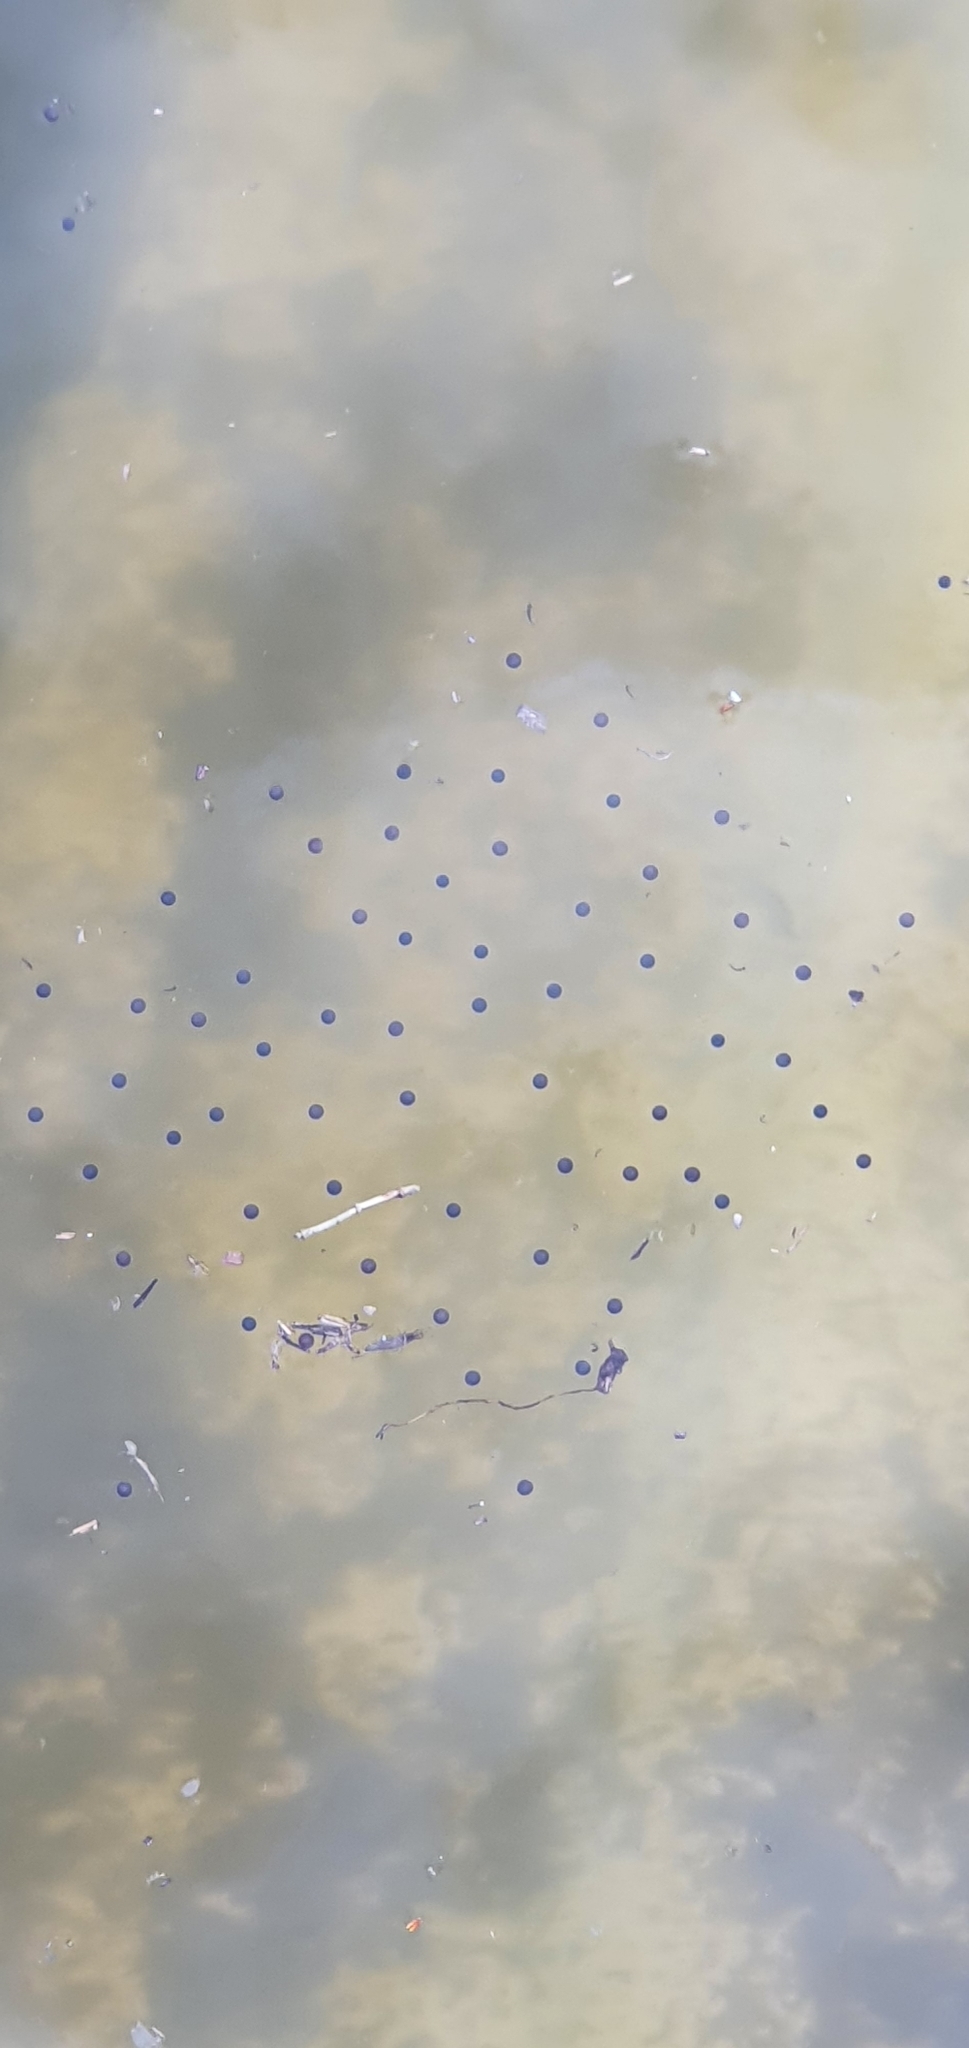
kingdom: Animalia
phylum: Chordata
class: Amphibia
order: Anura
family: Pelodryadidae
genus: Ranoidea
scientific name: Ranoidea caerulea
